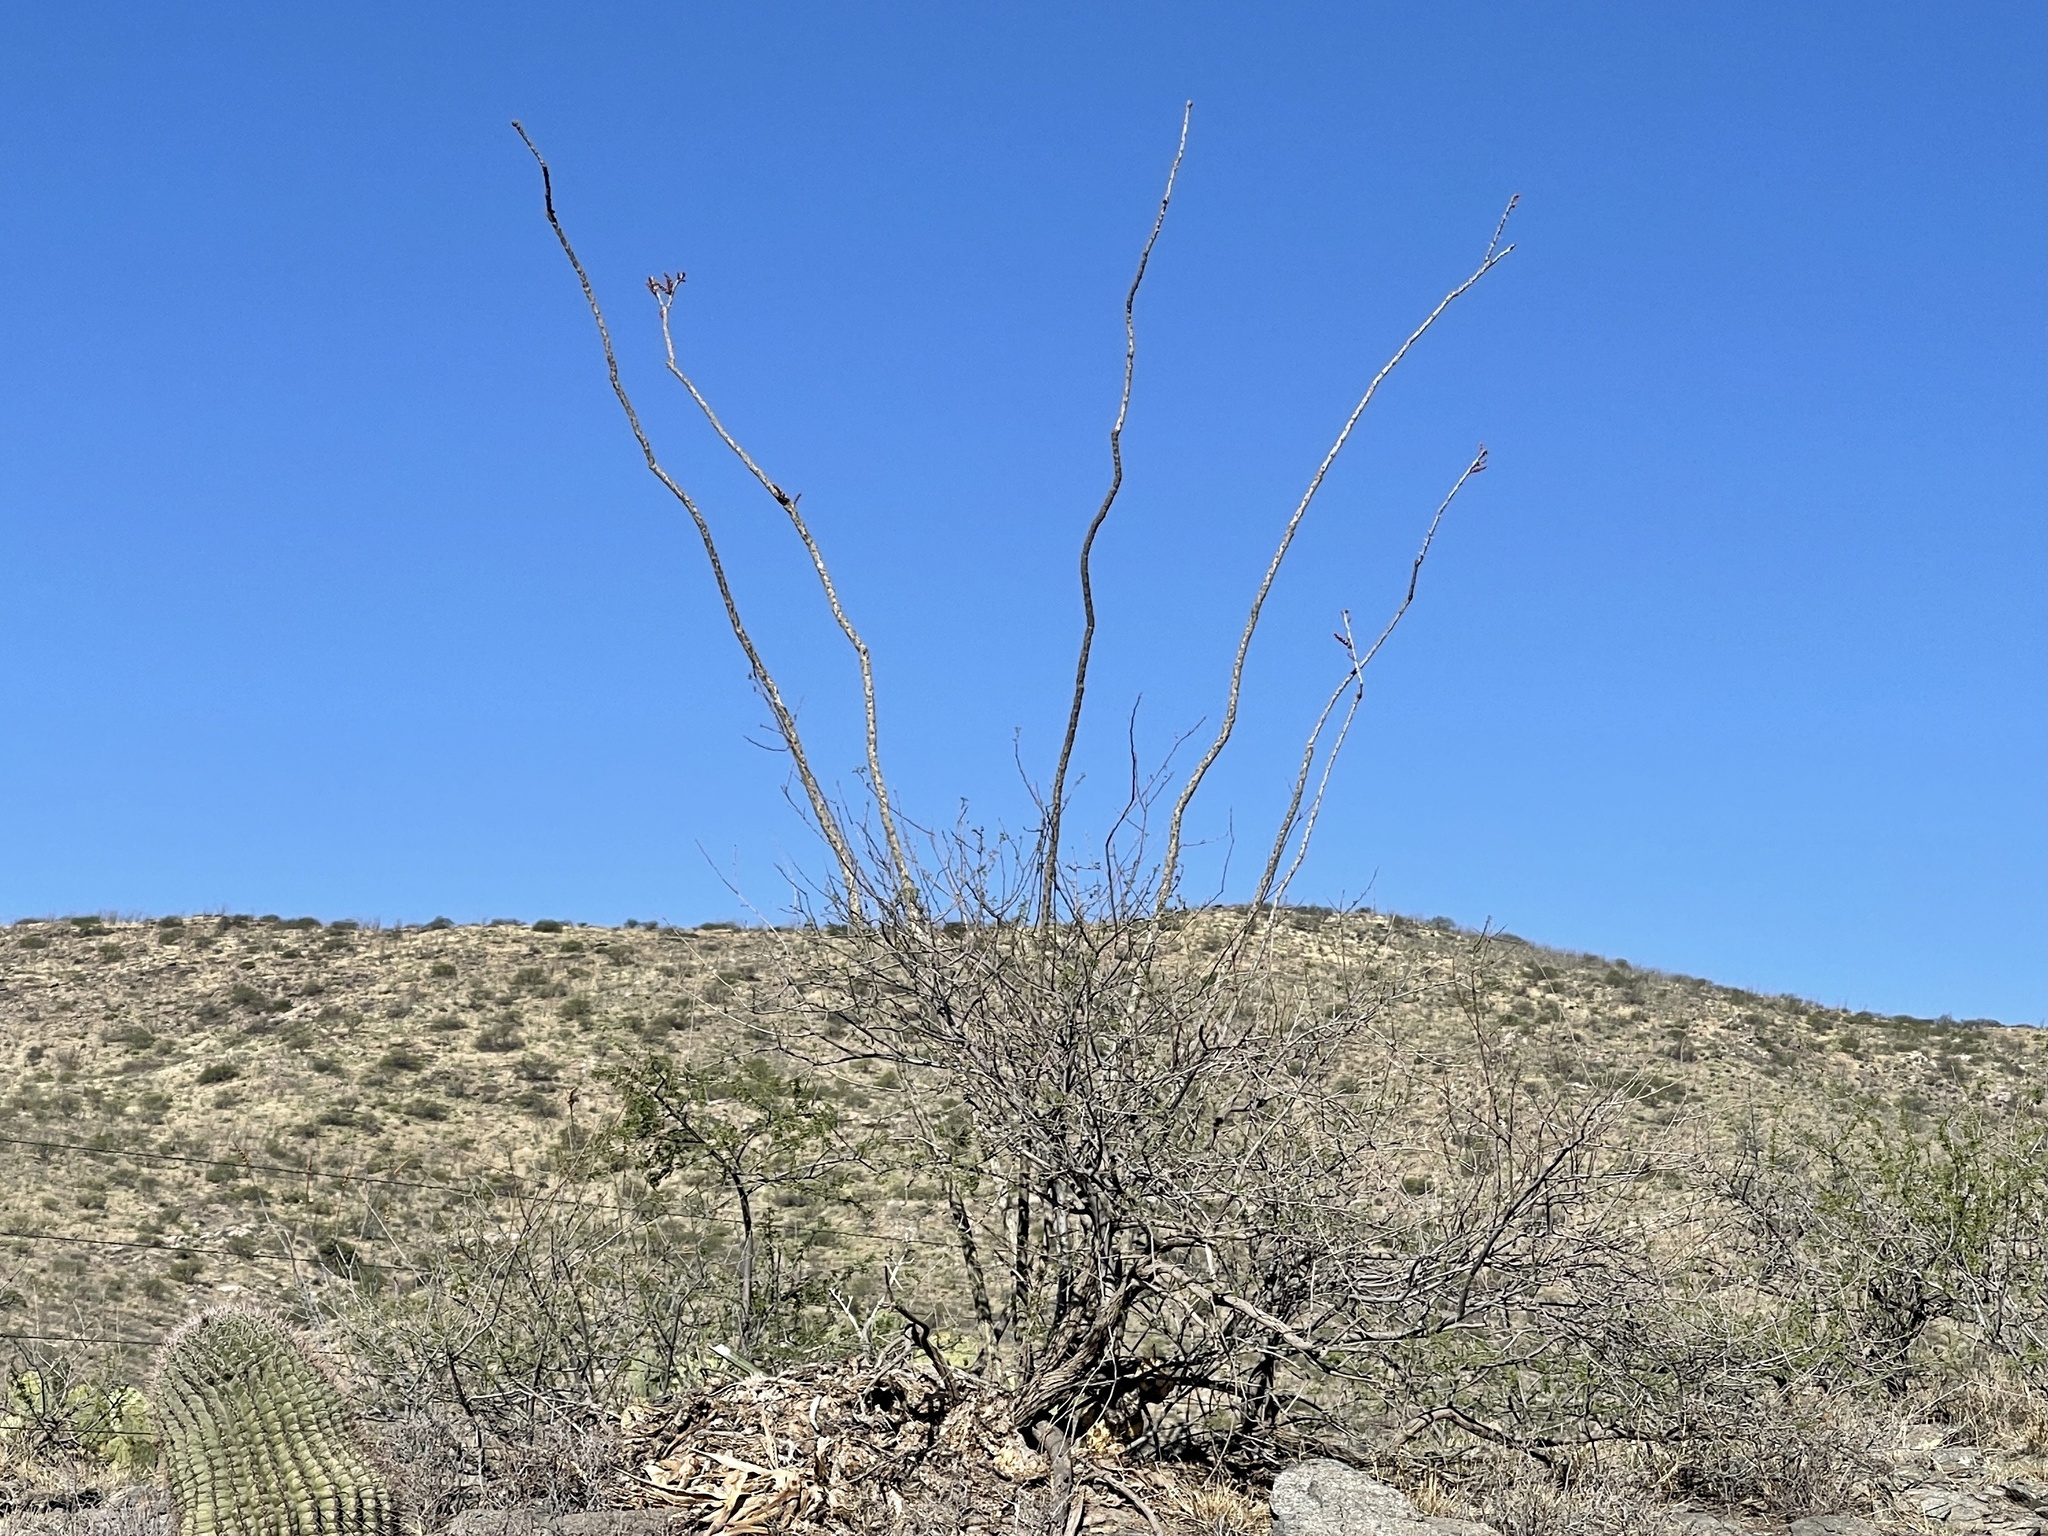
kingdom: Plantae
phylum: Tracheophyta
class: Magnoliopsida
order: Ericales
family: Fouquieriaceae
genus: Fouquieria
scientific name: Fouquieria splendens
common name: Vine-cactus
